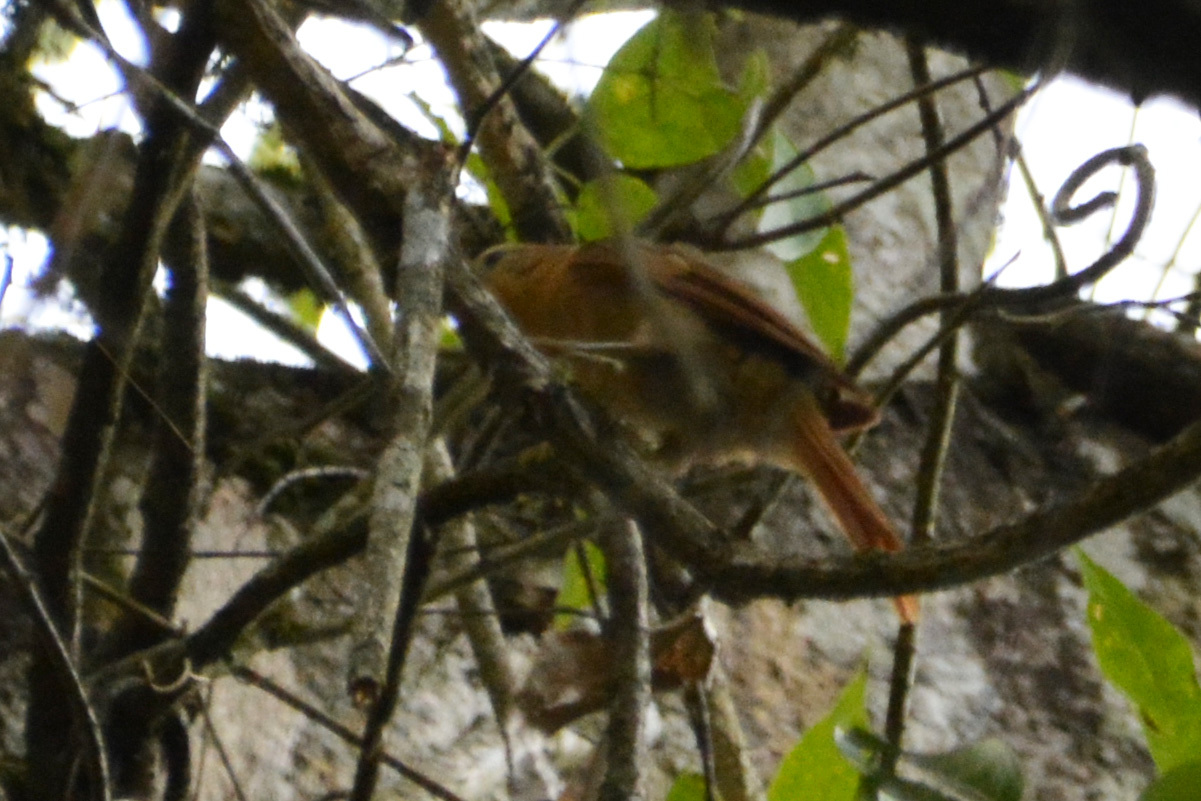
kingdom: Animalia
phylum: Chordata
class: Aves
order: Passeriformes
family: Furnariidae
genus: Philydor
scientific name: Philydor lichtensteini
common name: Ochre-breasted foliage-gleaner
